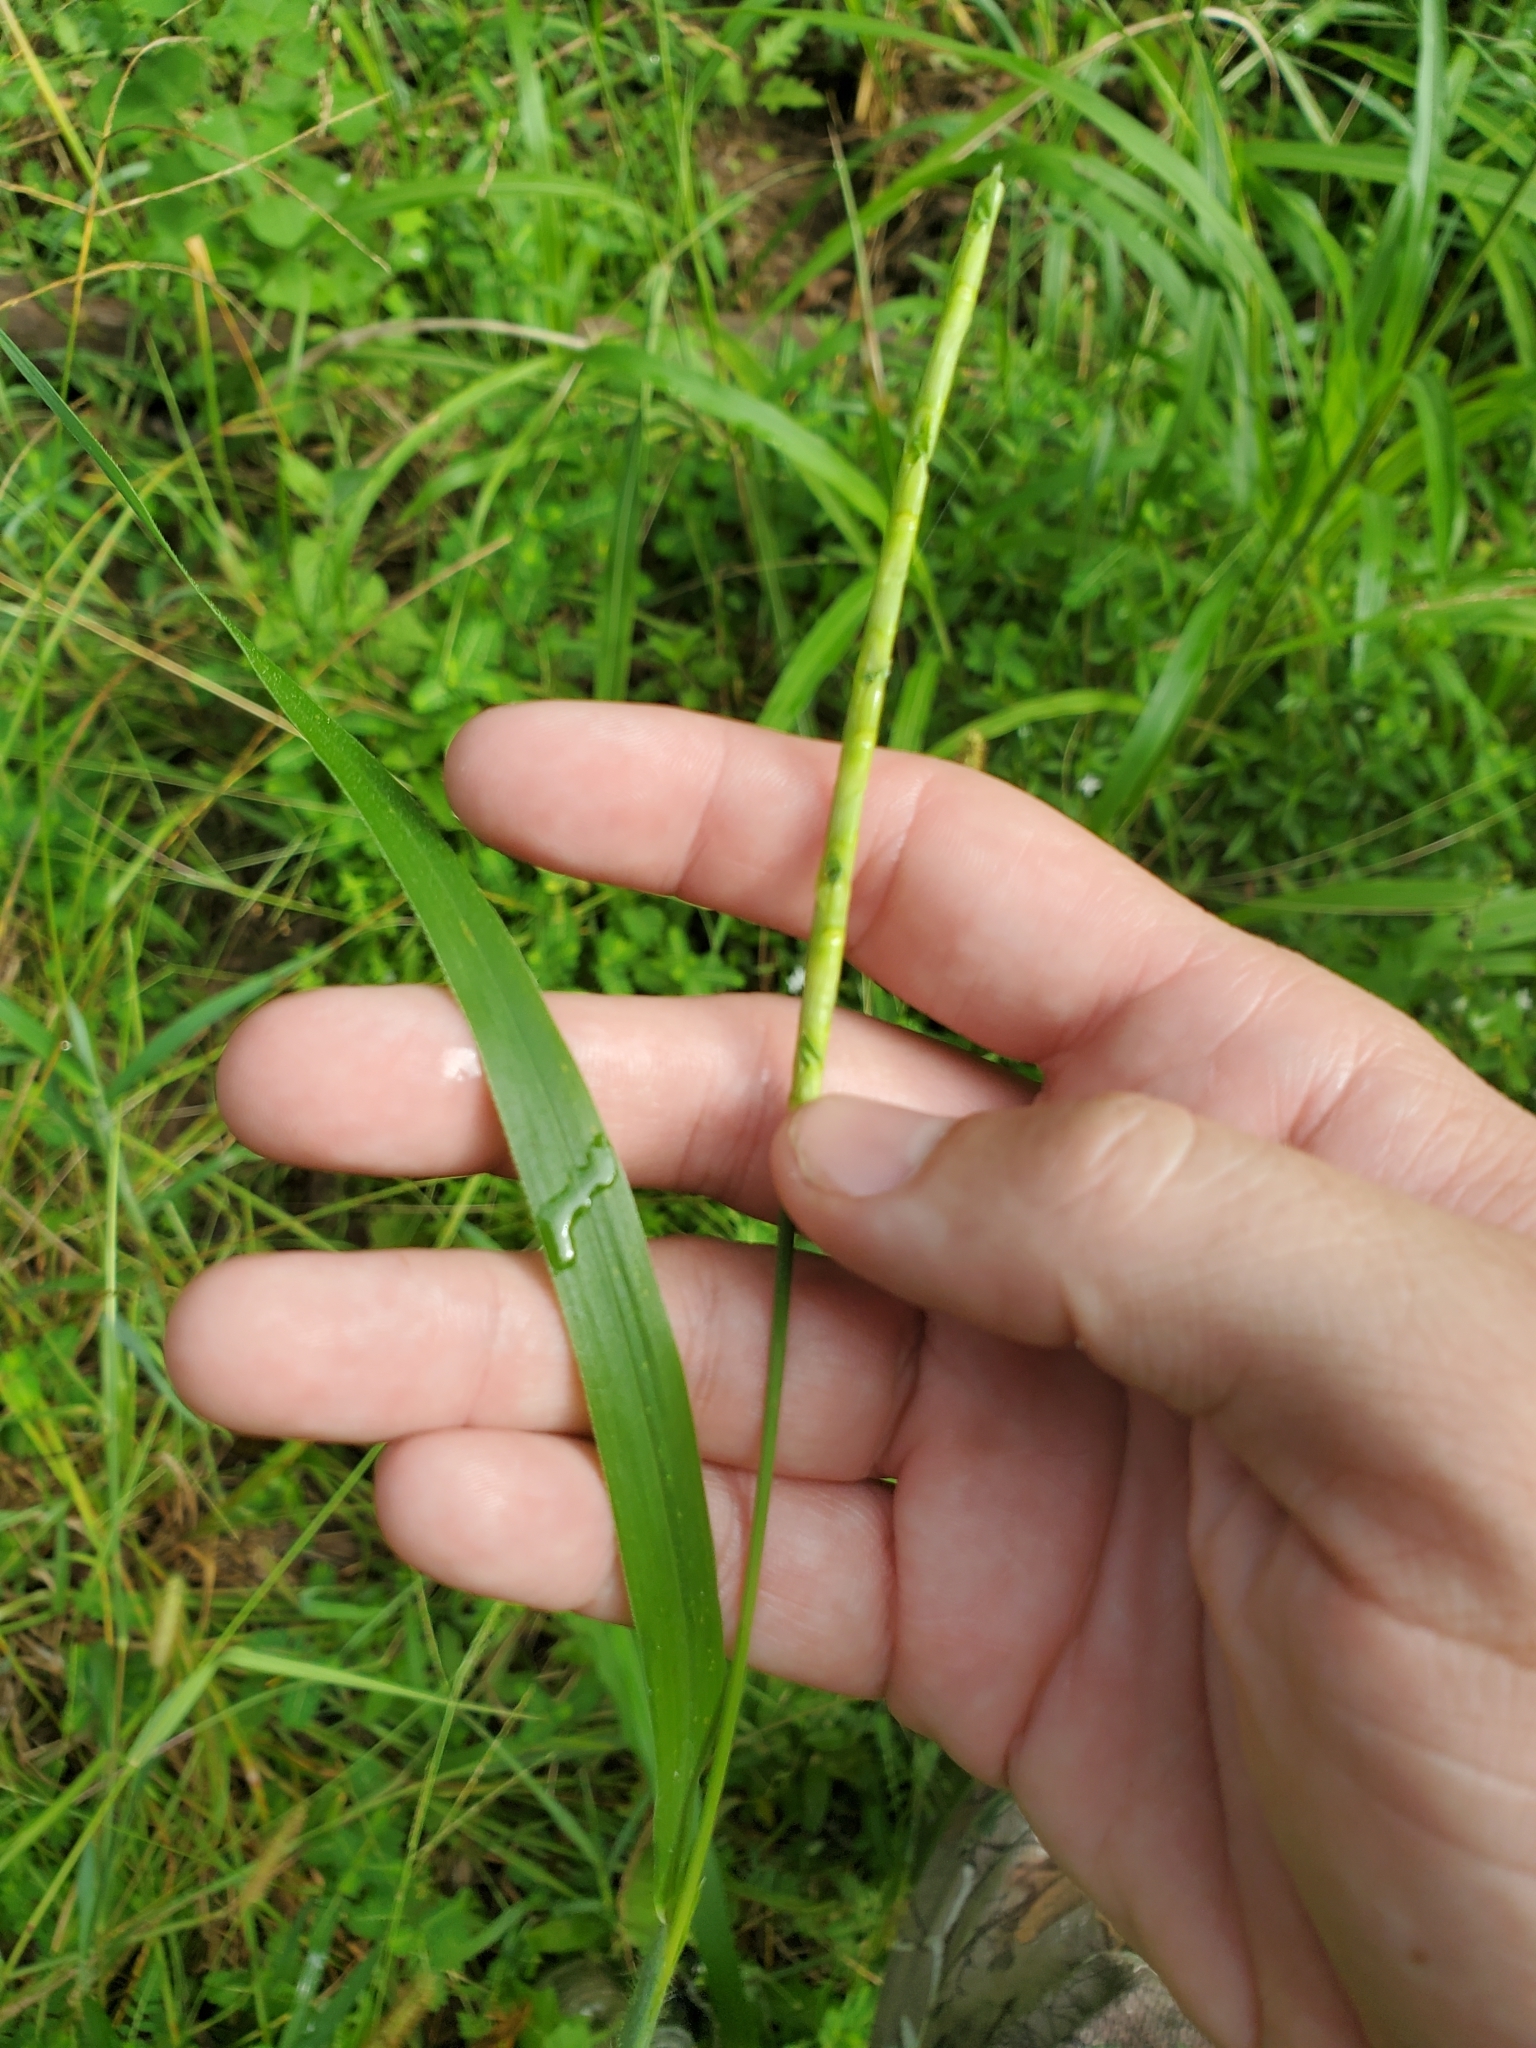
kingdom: Plantae
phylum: Tracheophyta
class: Liliopsida
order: Poales
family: Poaceae
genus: Rottboellia
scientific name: Rottboellia cochinchinensis
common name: Itchgrass
